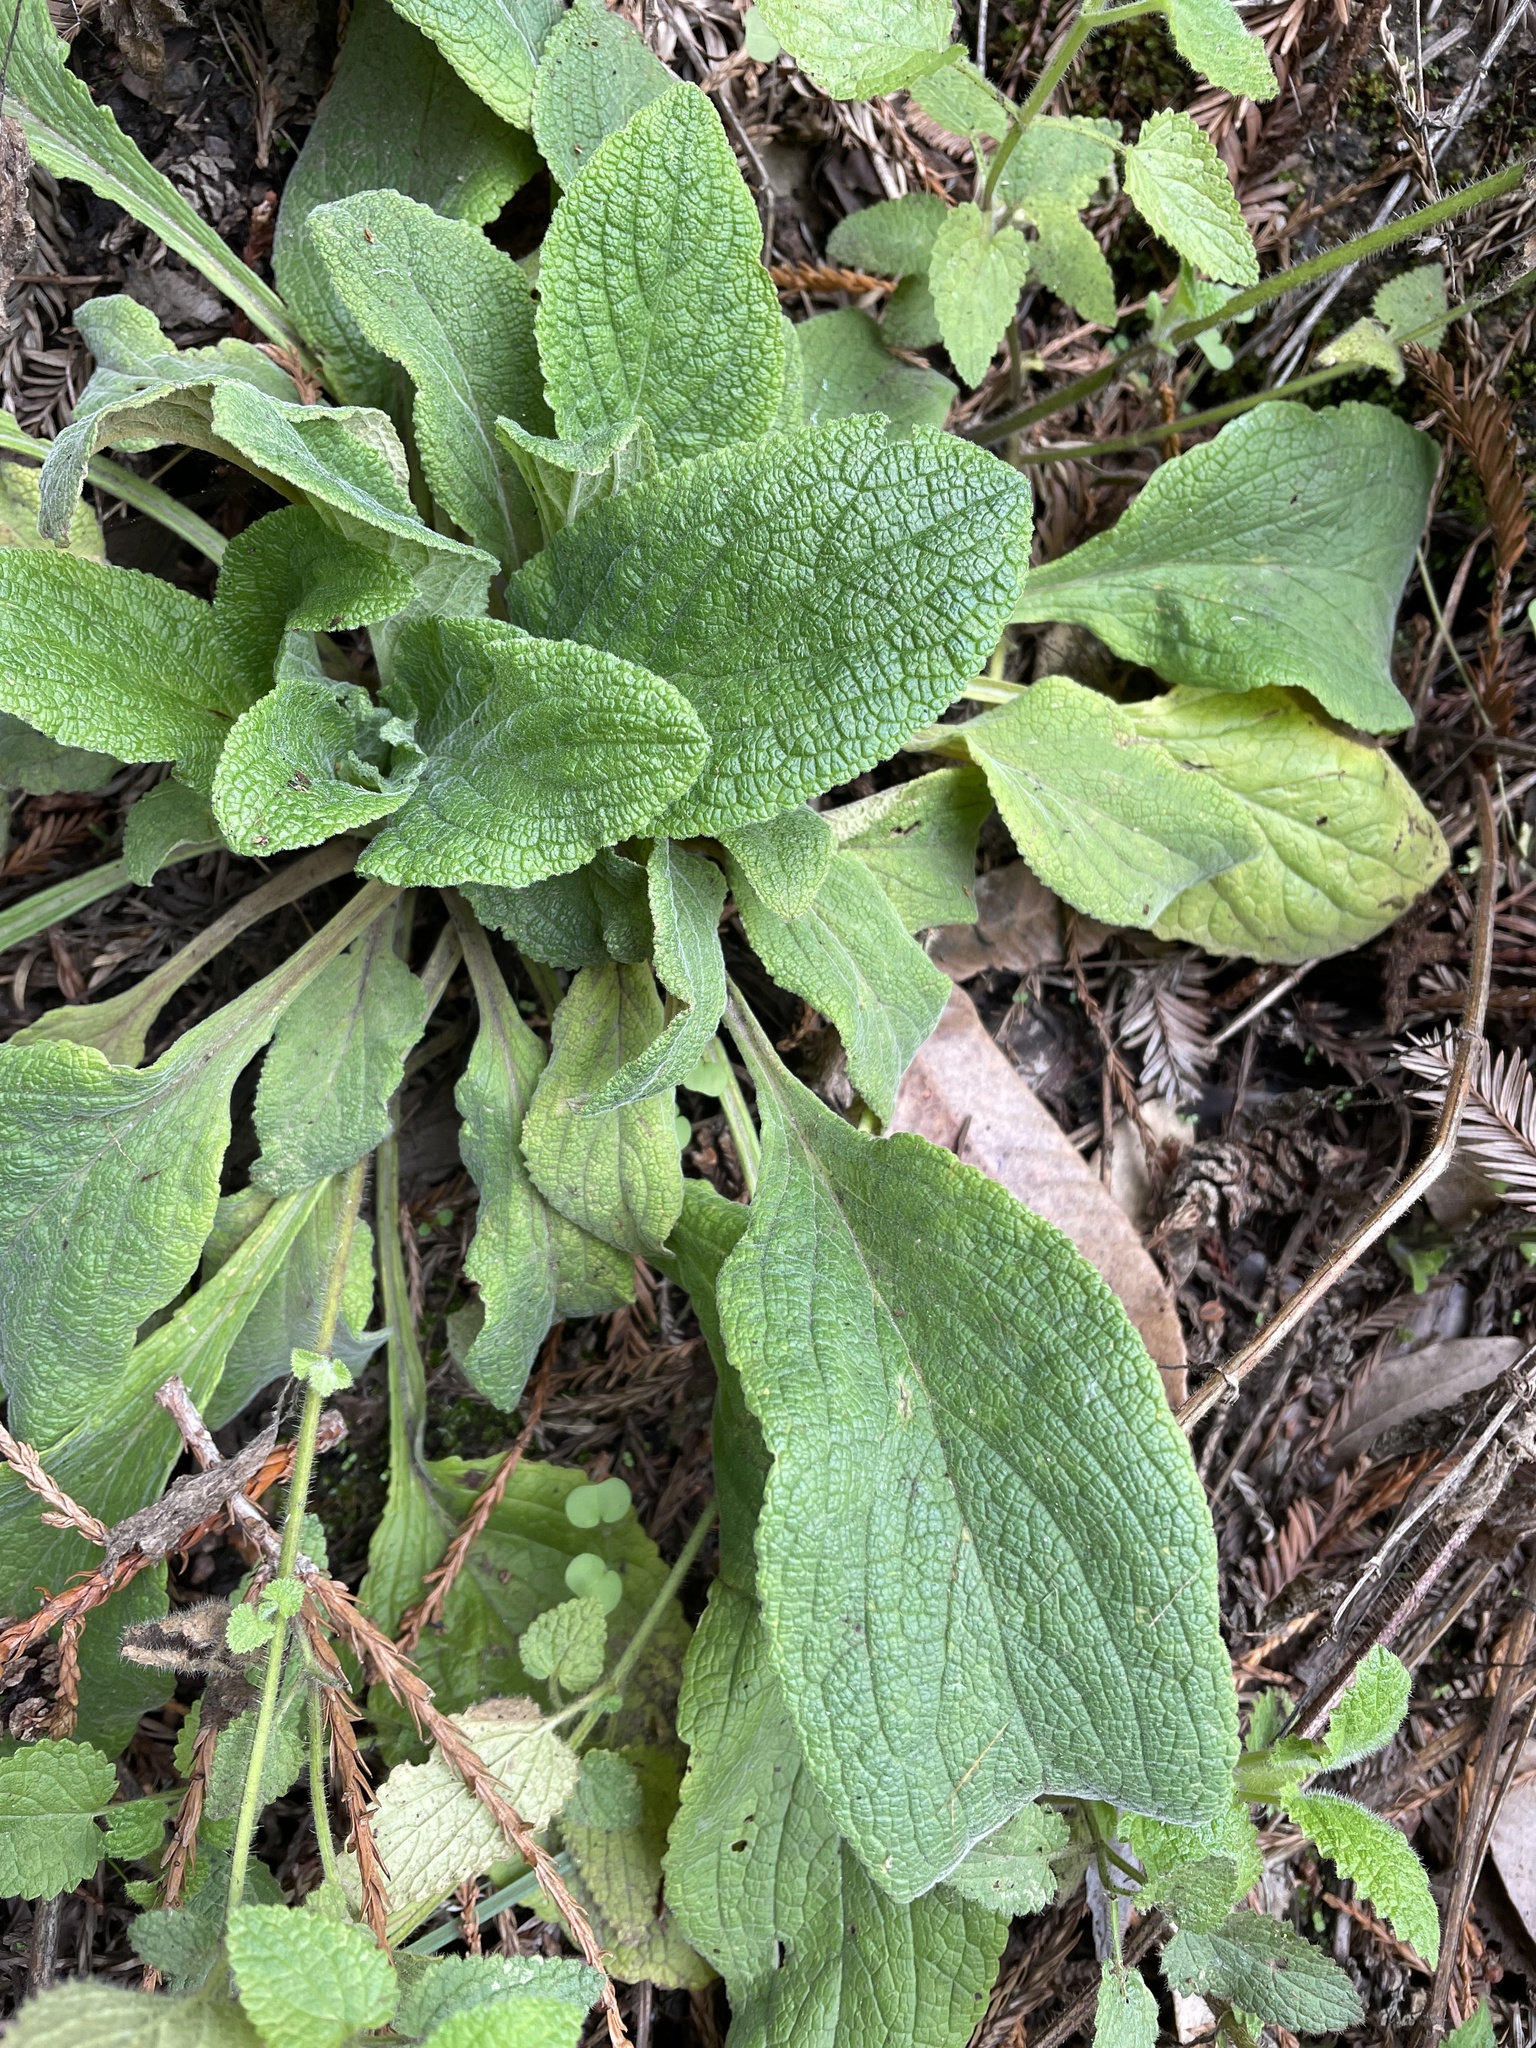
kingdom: Plantae
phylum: Tracheophyta
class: Magnoliopsida
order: Lamiales
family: Plantaginaceae
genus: Digitalis
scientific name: Digitalis purpurea
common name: Foxglove
